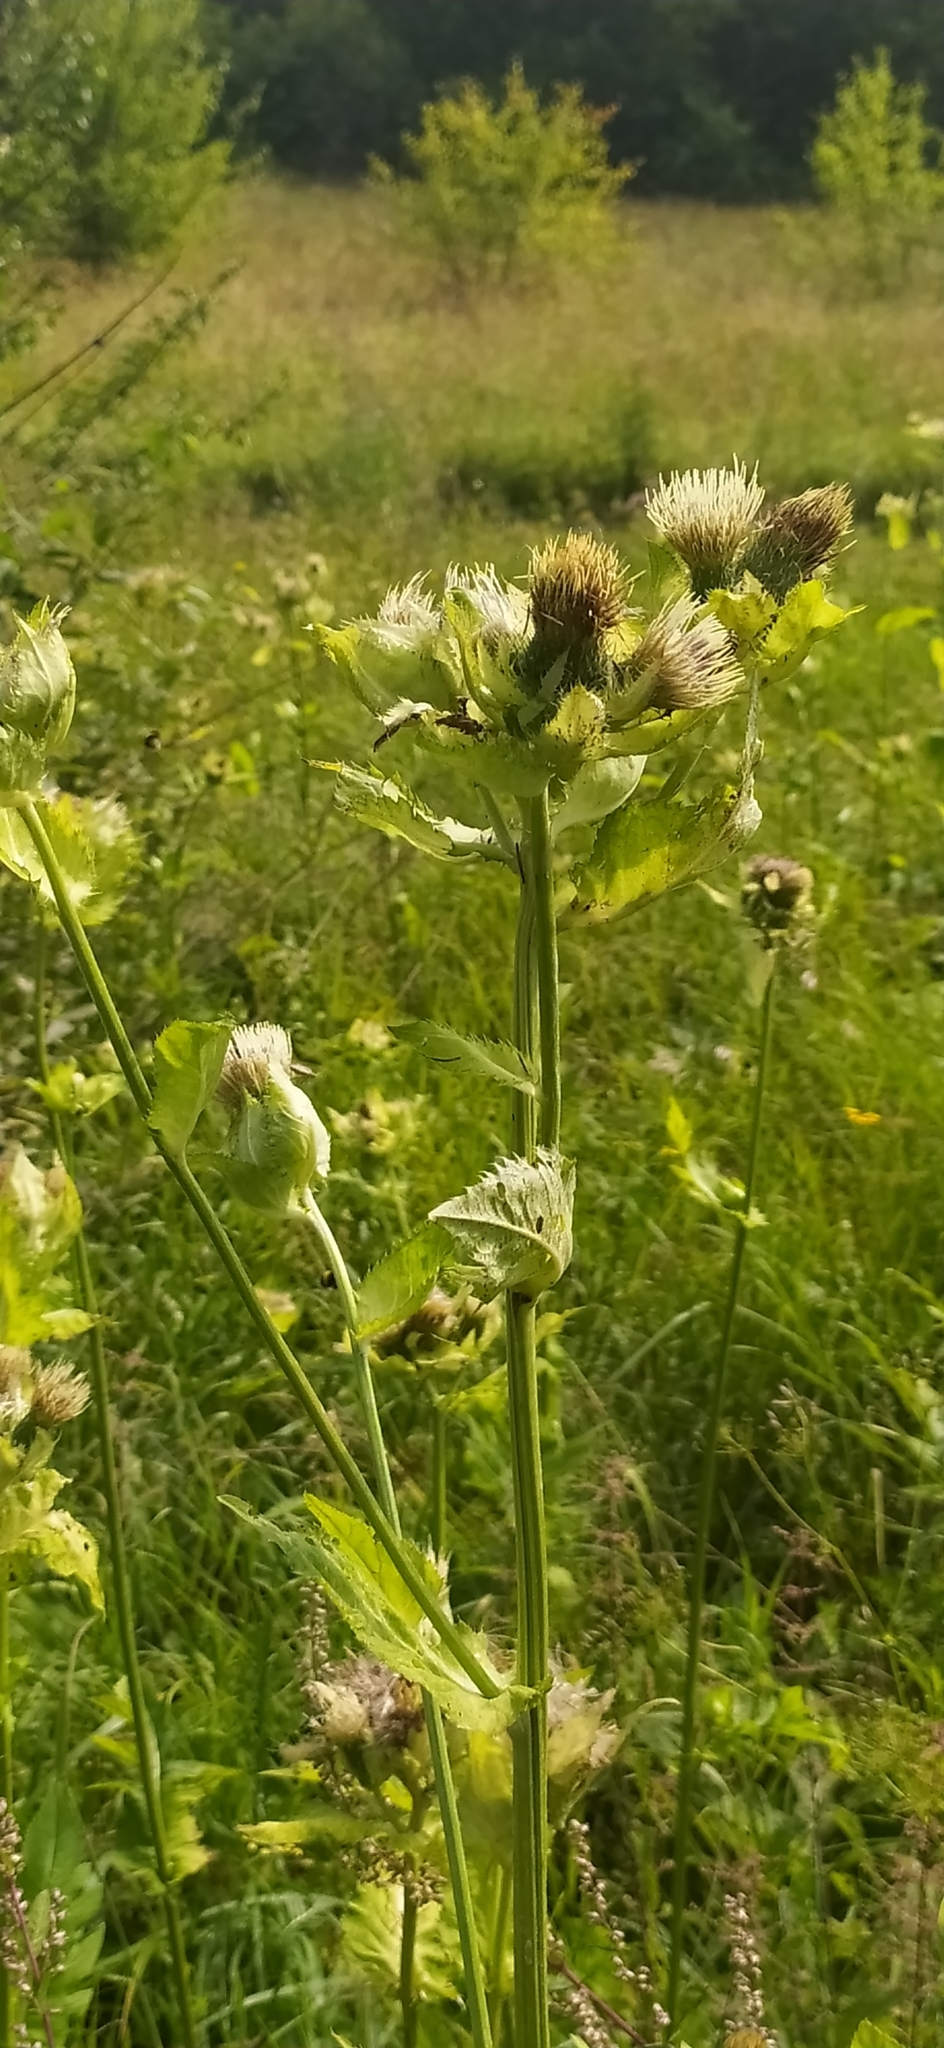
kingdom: Plantae
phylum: Tracheophyta
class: Magnoliopsida
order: Asterales
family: Asteraceae
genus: Cirsium
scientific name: Cirsium oleraceum
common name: Cabbage thistle
